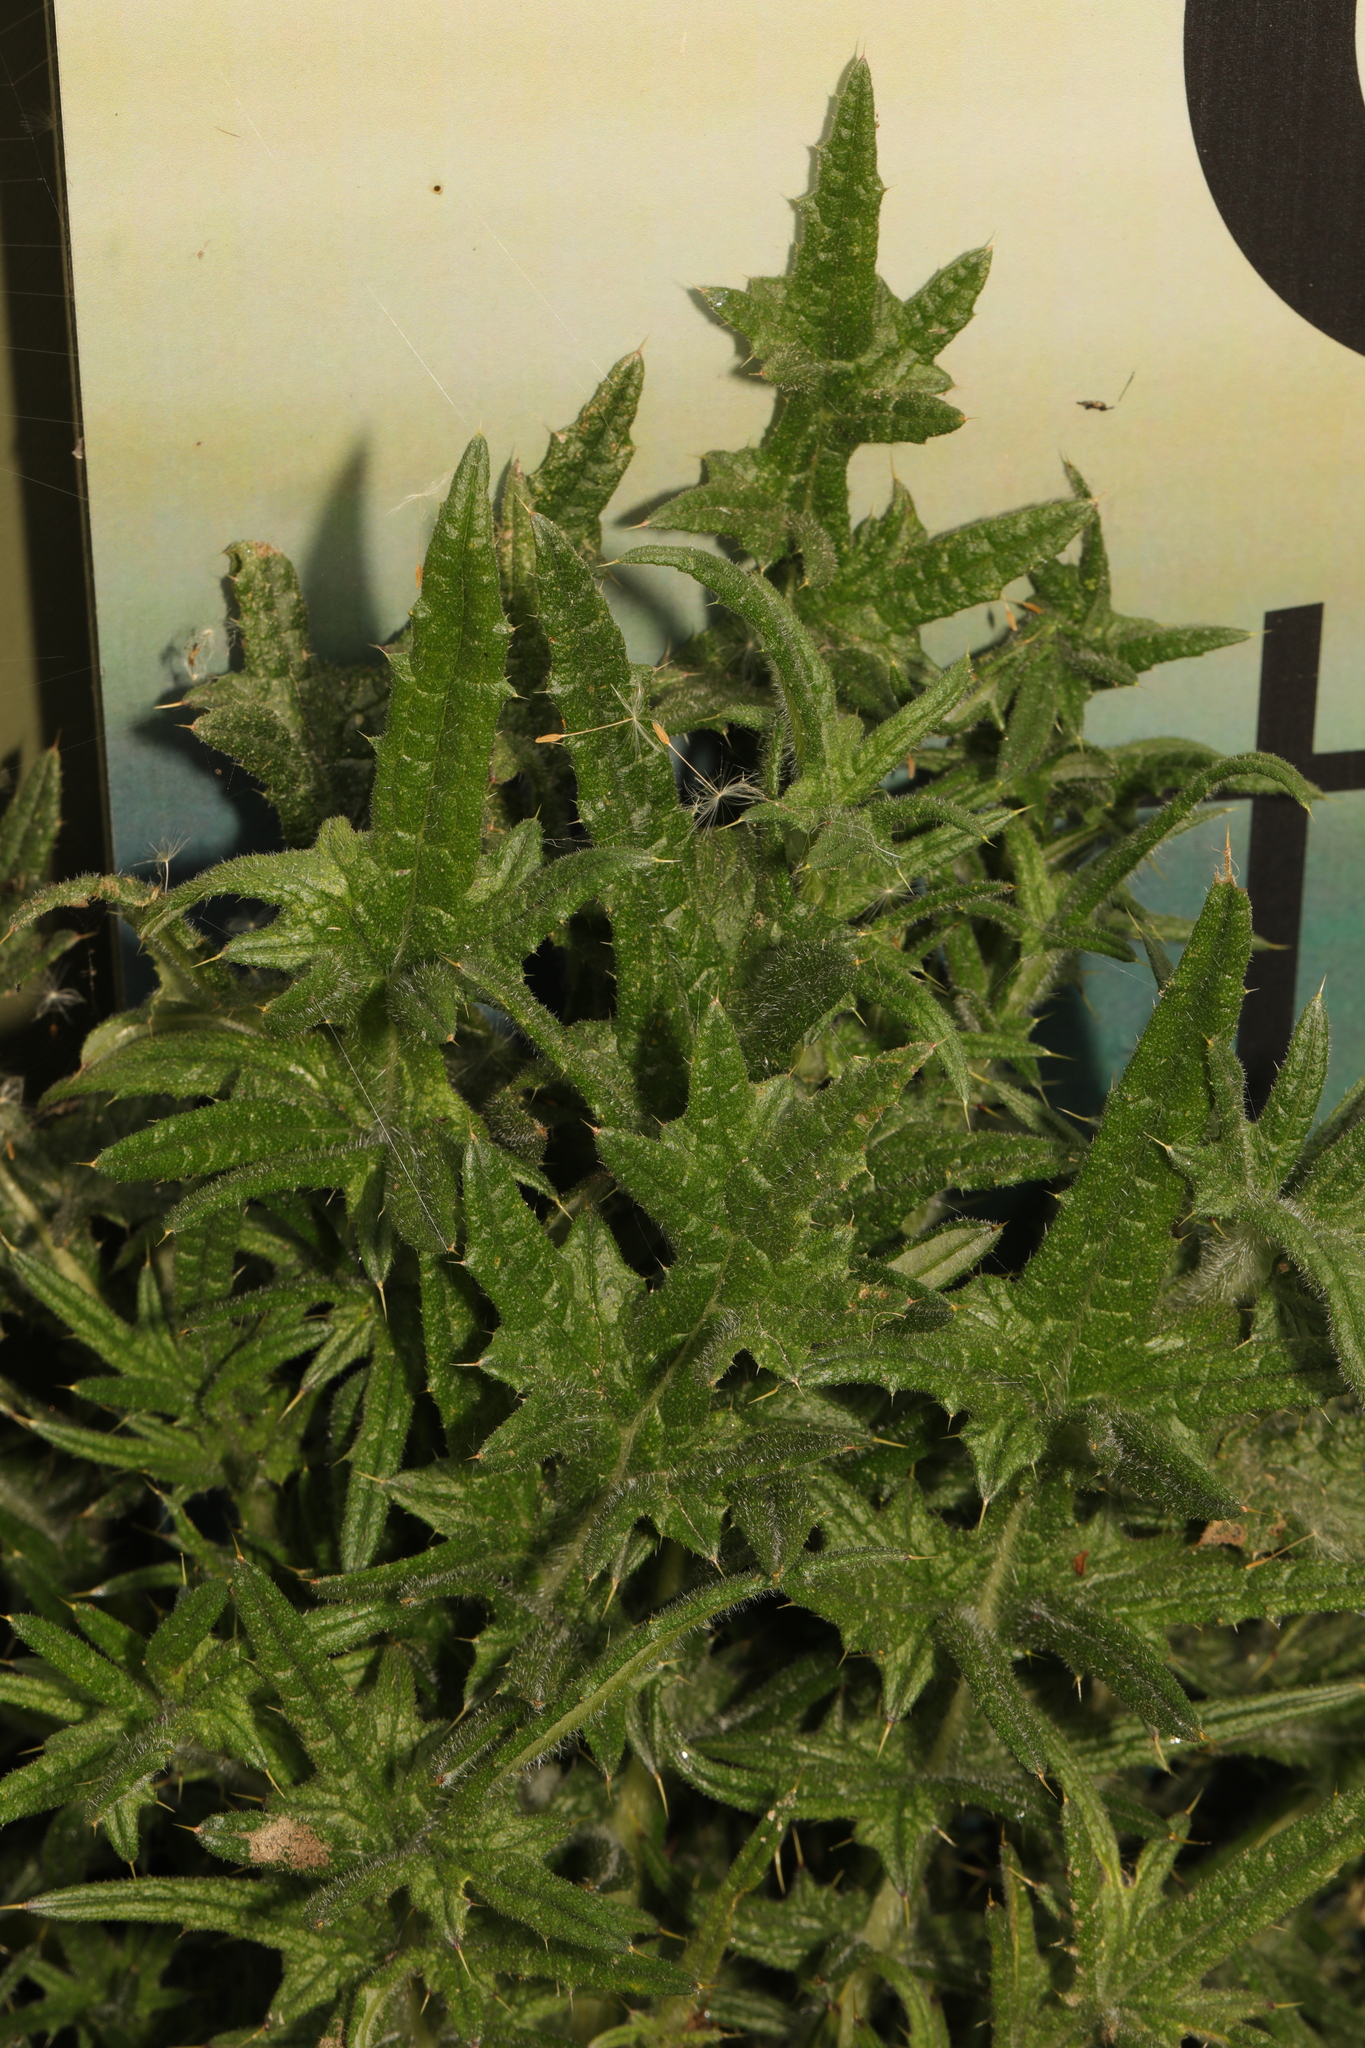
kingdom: Plantae
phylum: Tracheophyta
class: Magnoliopsida
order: Asterales
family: Asteraceae
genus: Cirsium
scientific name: Cirsium vulgare
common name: Bull thistle
